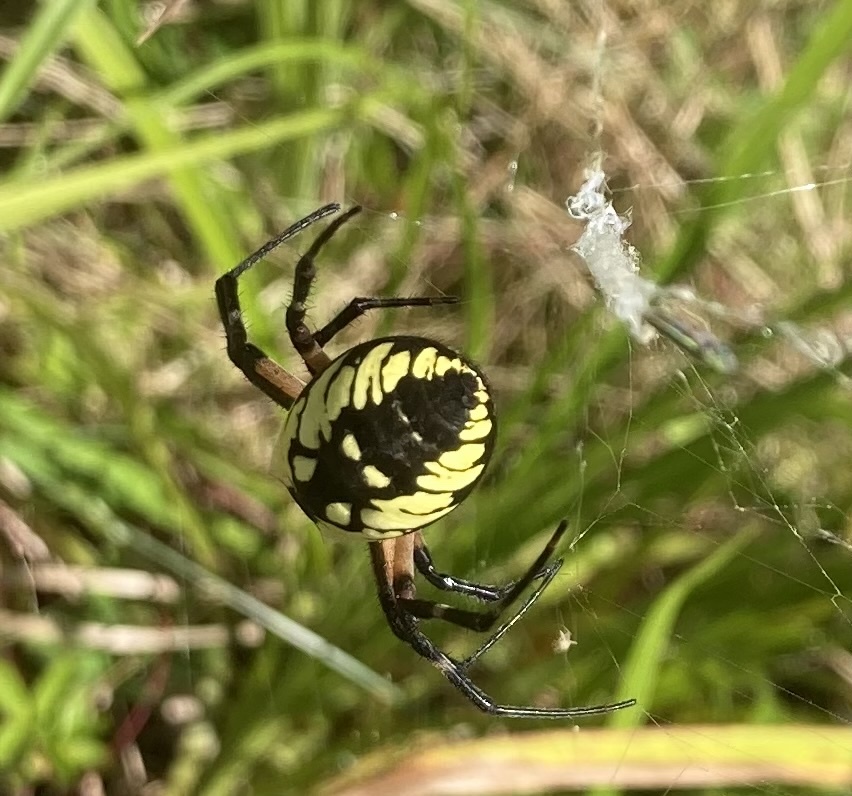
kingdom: Animalia
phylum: Arthropoda
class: Arachnida
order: Araneae
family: Araneidae
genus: Argiope
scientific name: Argiope aurantia
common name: Orb weavers
